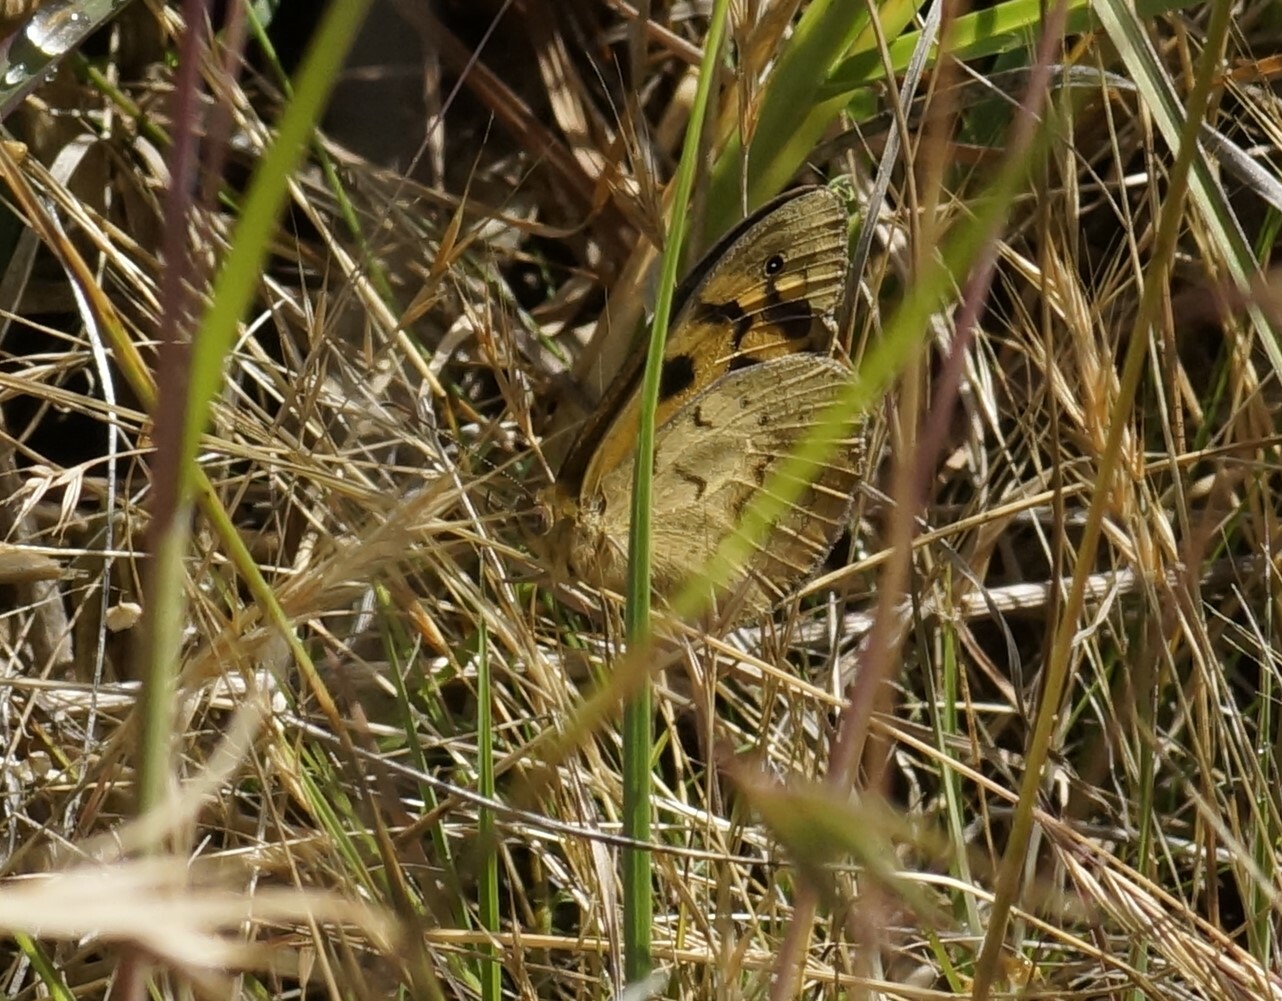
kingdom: Animalia
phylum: Arthropoda
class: Insecta
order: Lepidoptera
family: Nymphalidae
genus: Heteronympha
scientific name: Heteronympha merope
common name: Common brown
